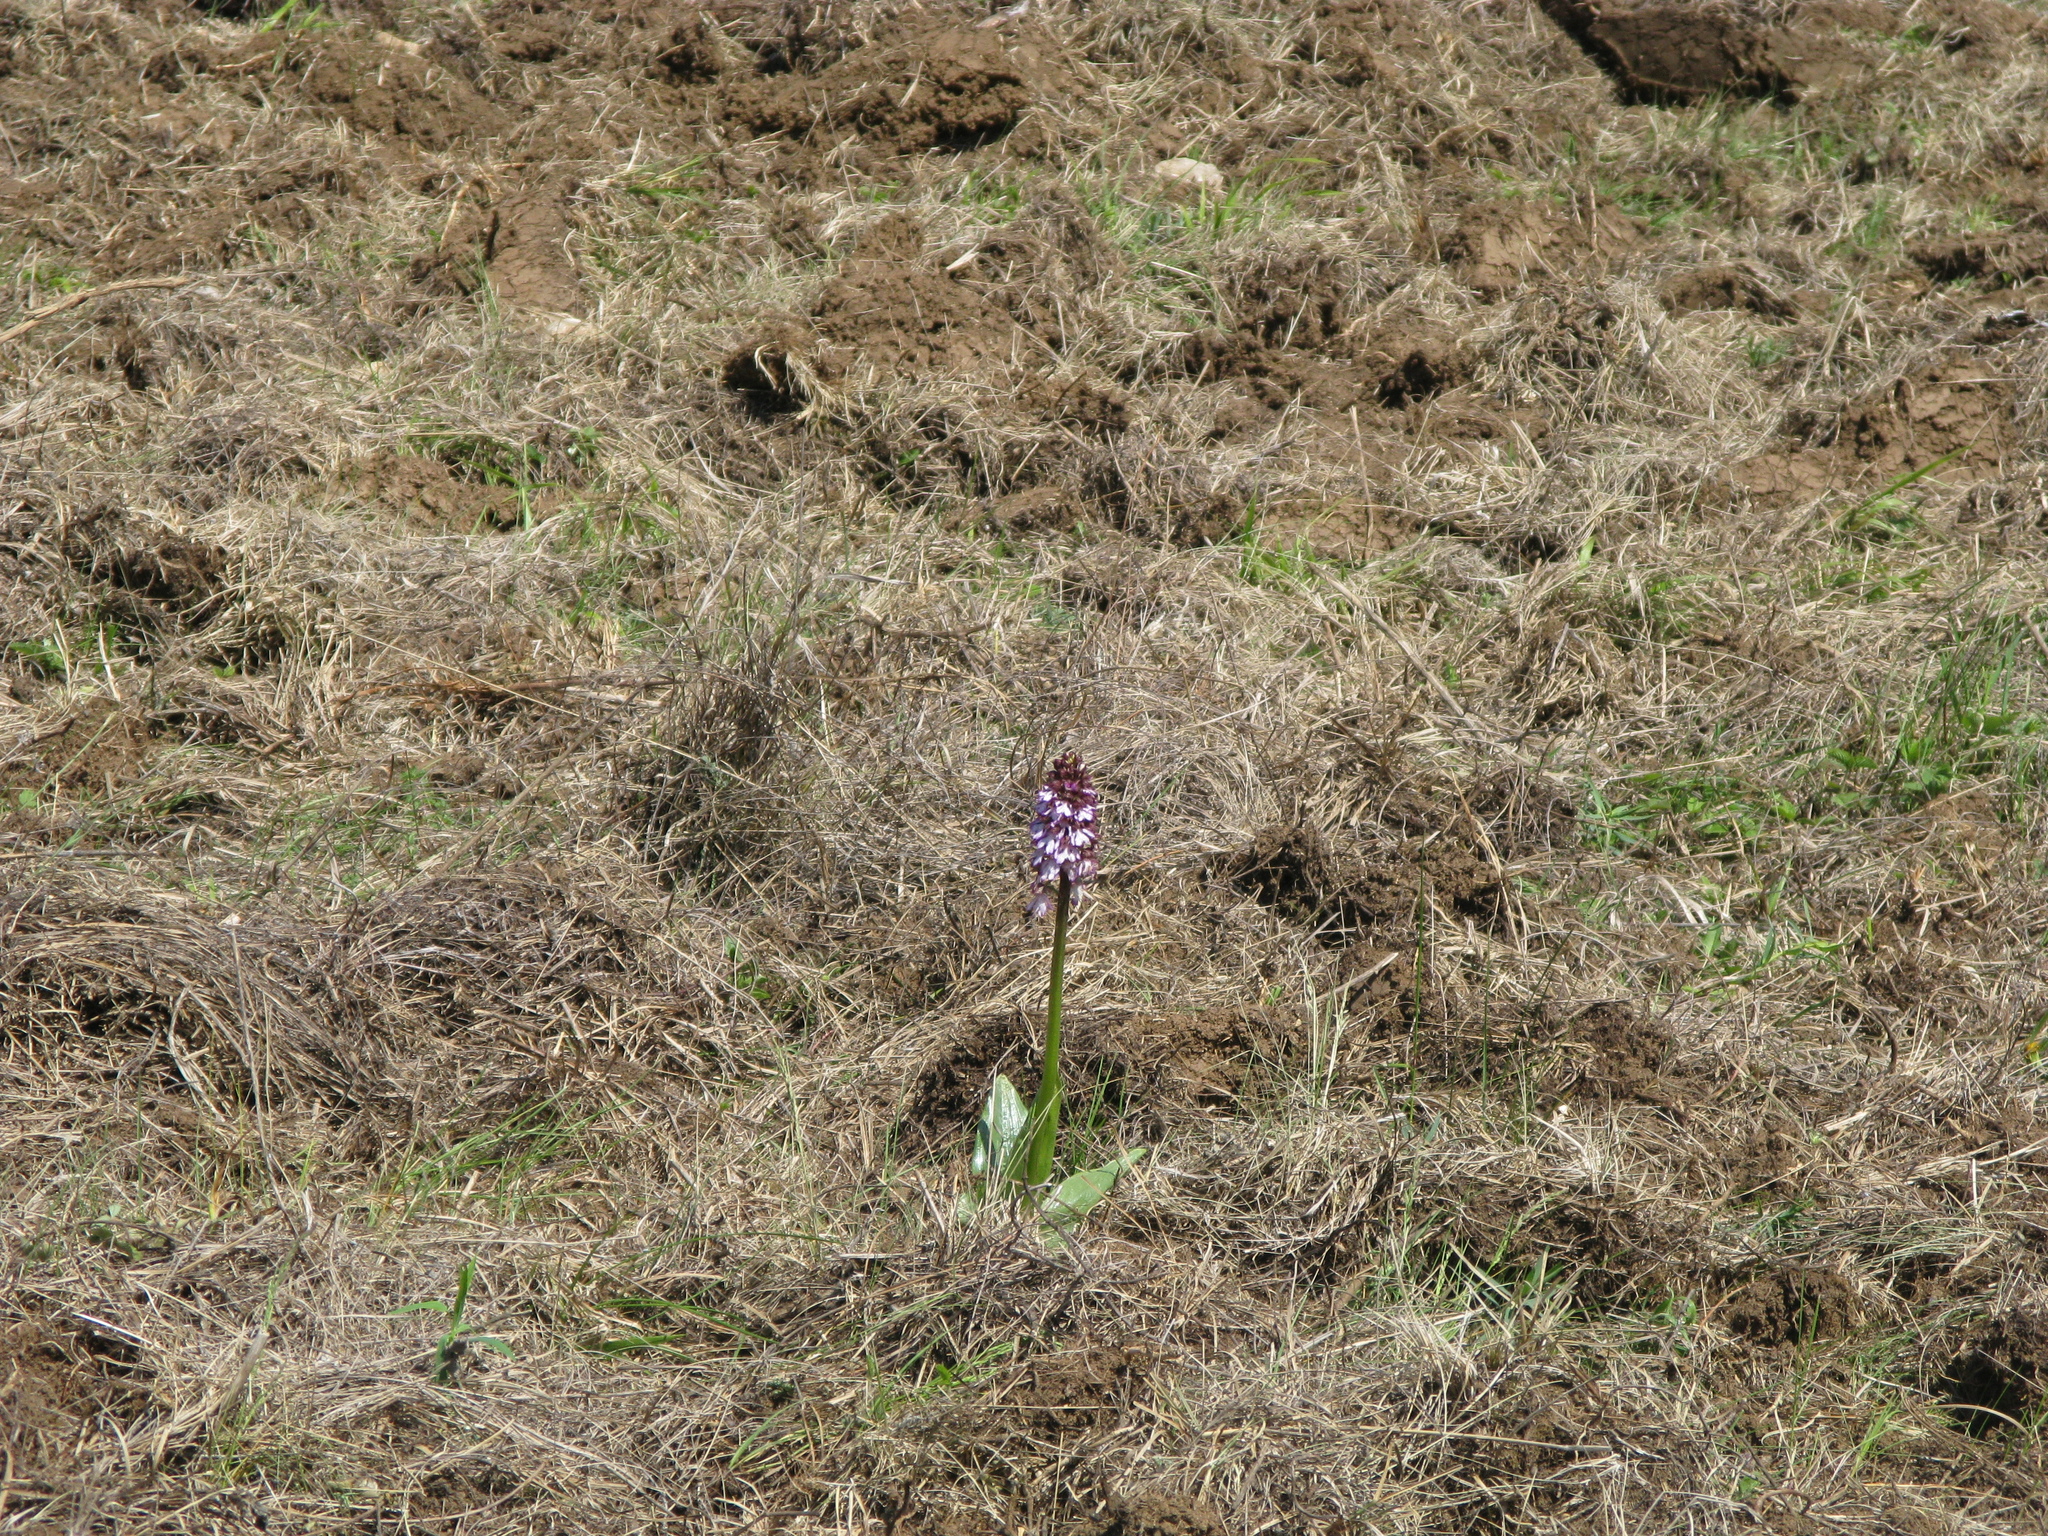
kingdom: Plantae
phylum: Tracheophyta
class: Liliopsida
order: Asparagales
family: Orchidaceae
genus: Orchis
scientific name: Orchis purpurea
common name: Lady orchid
